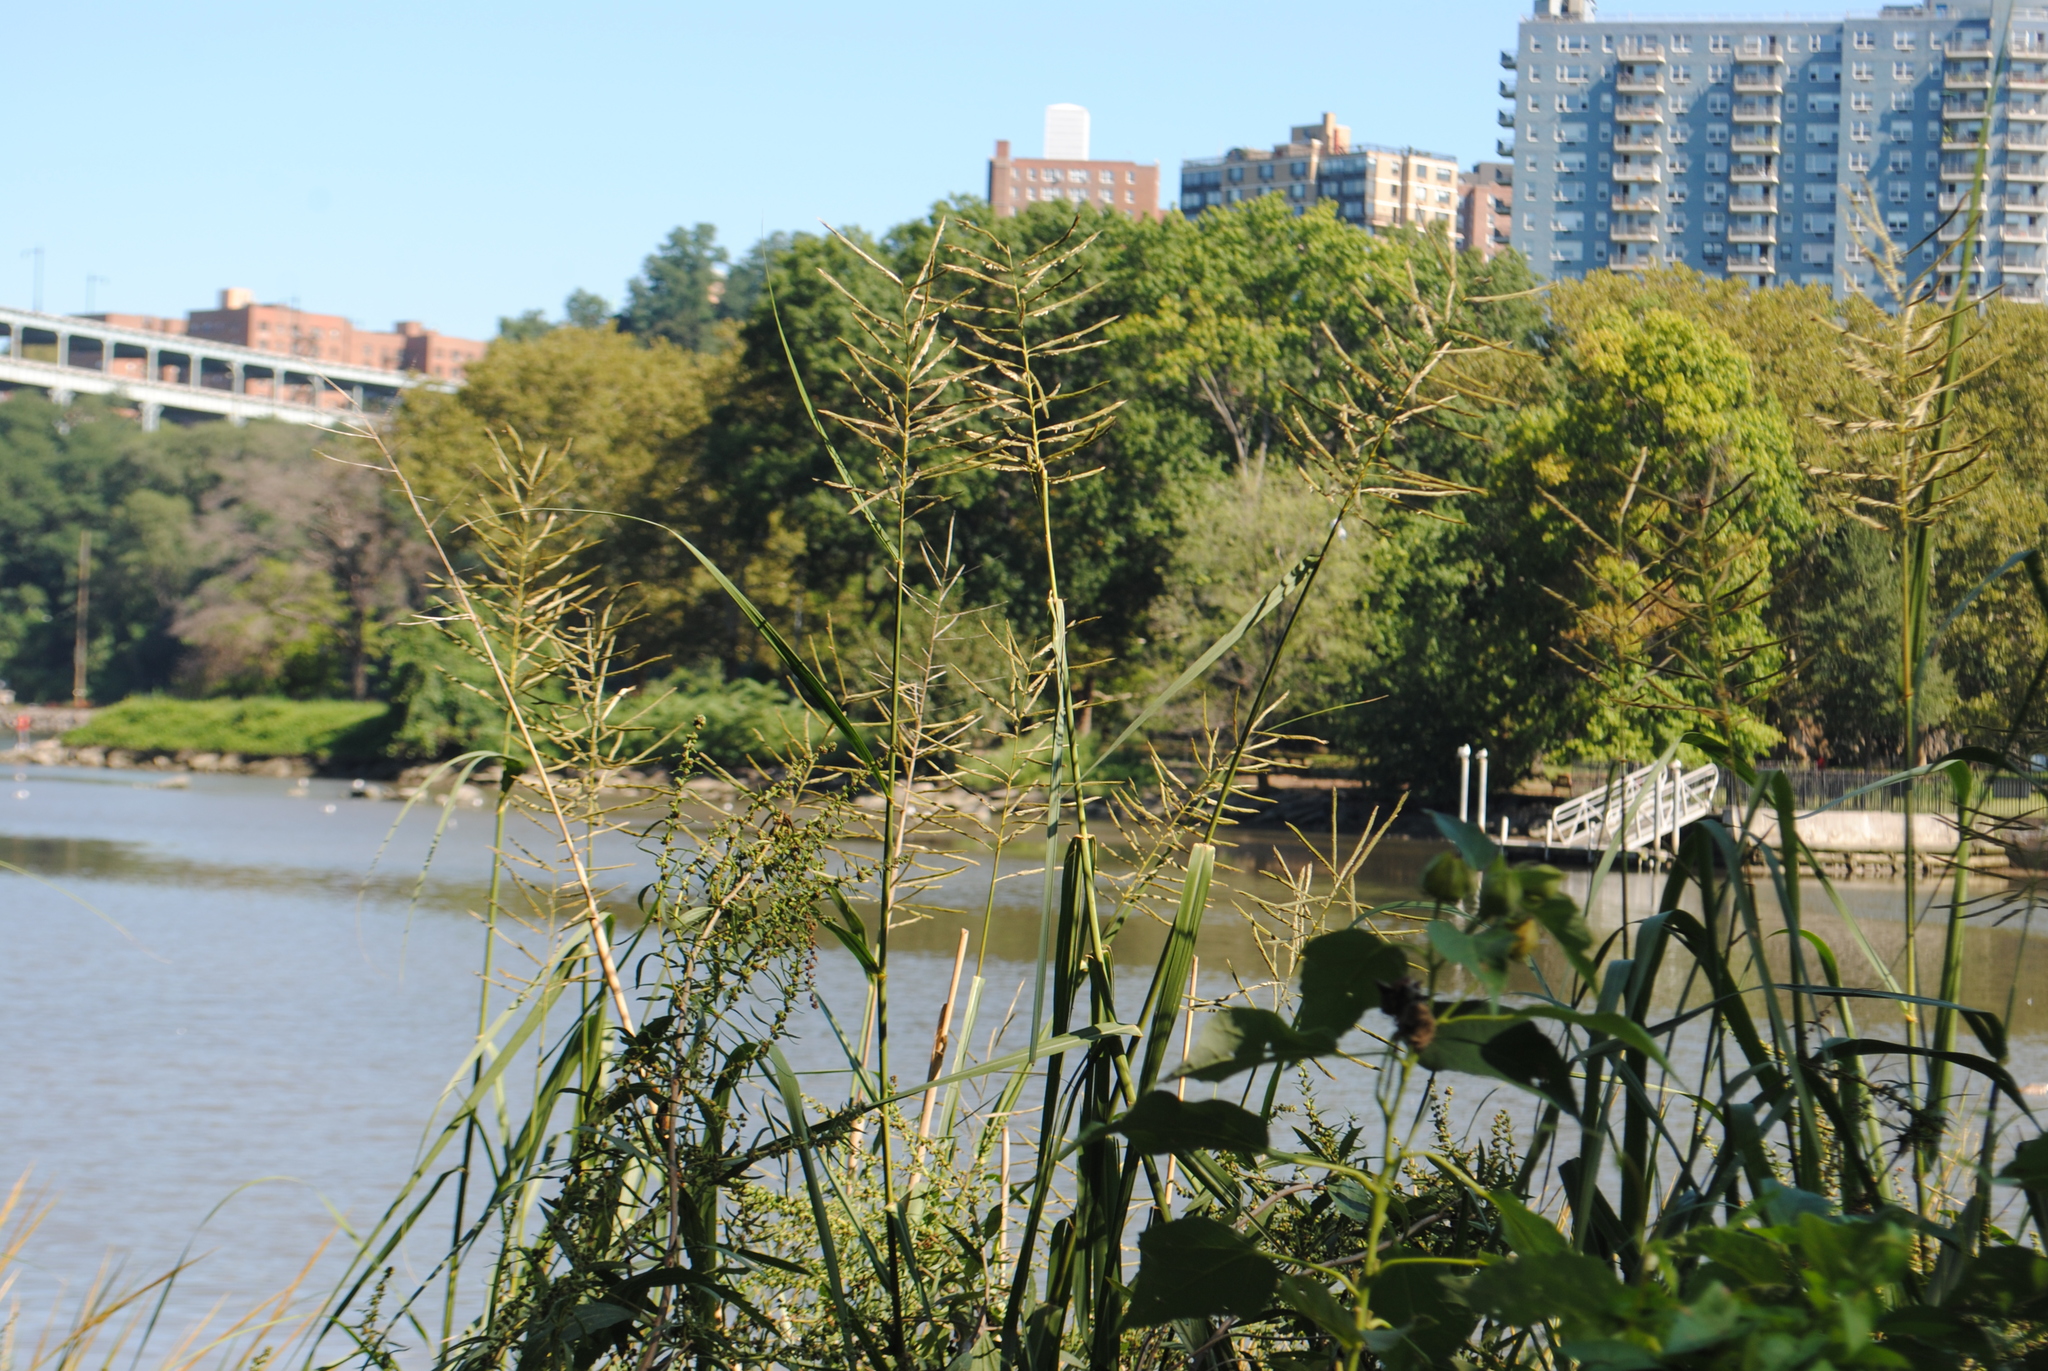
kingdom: Plantae
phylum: Tracheophyta
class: Liliopsida
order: Poales
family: Poaceae
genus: Sporobolus
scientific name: Sporobolus cynosuroides
